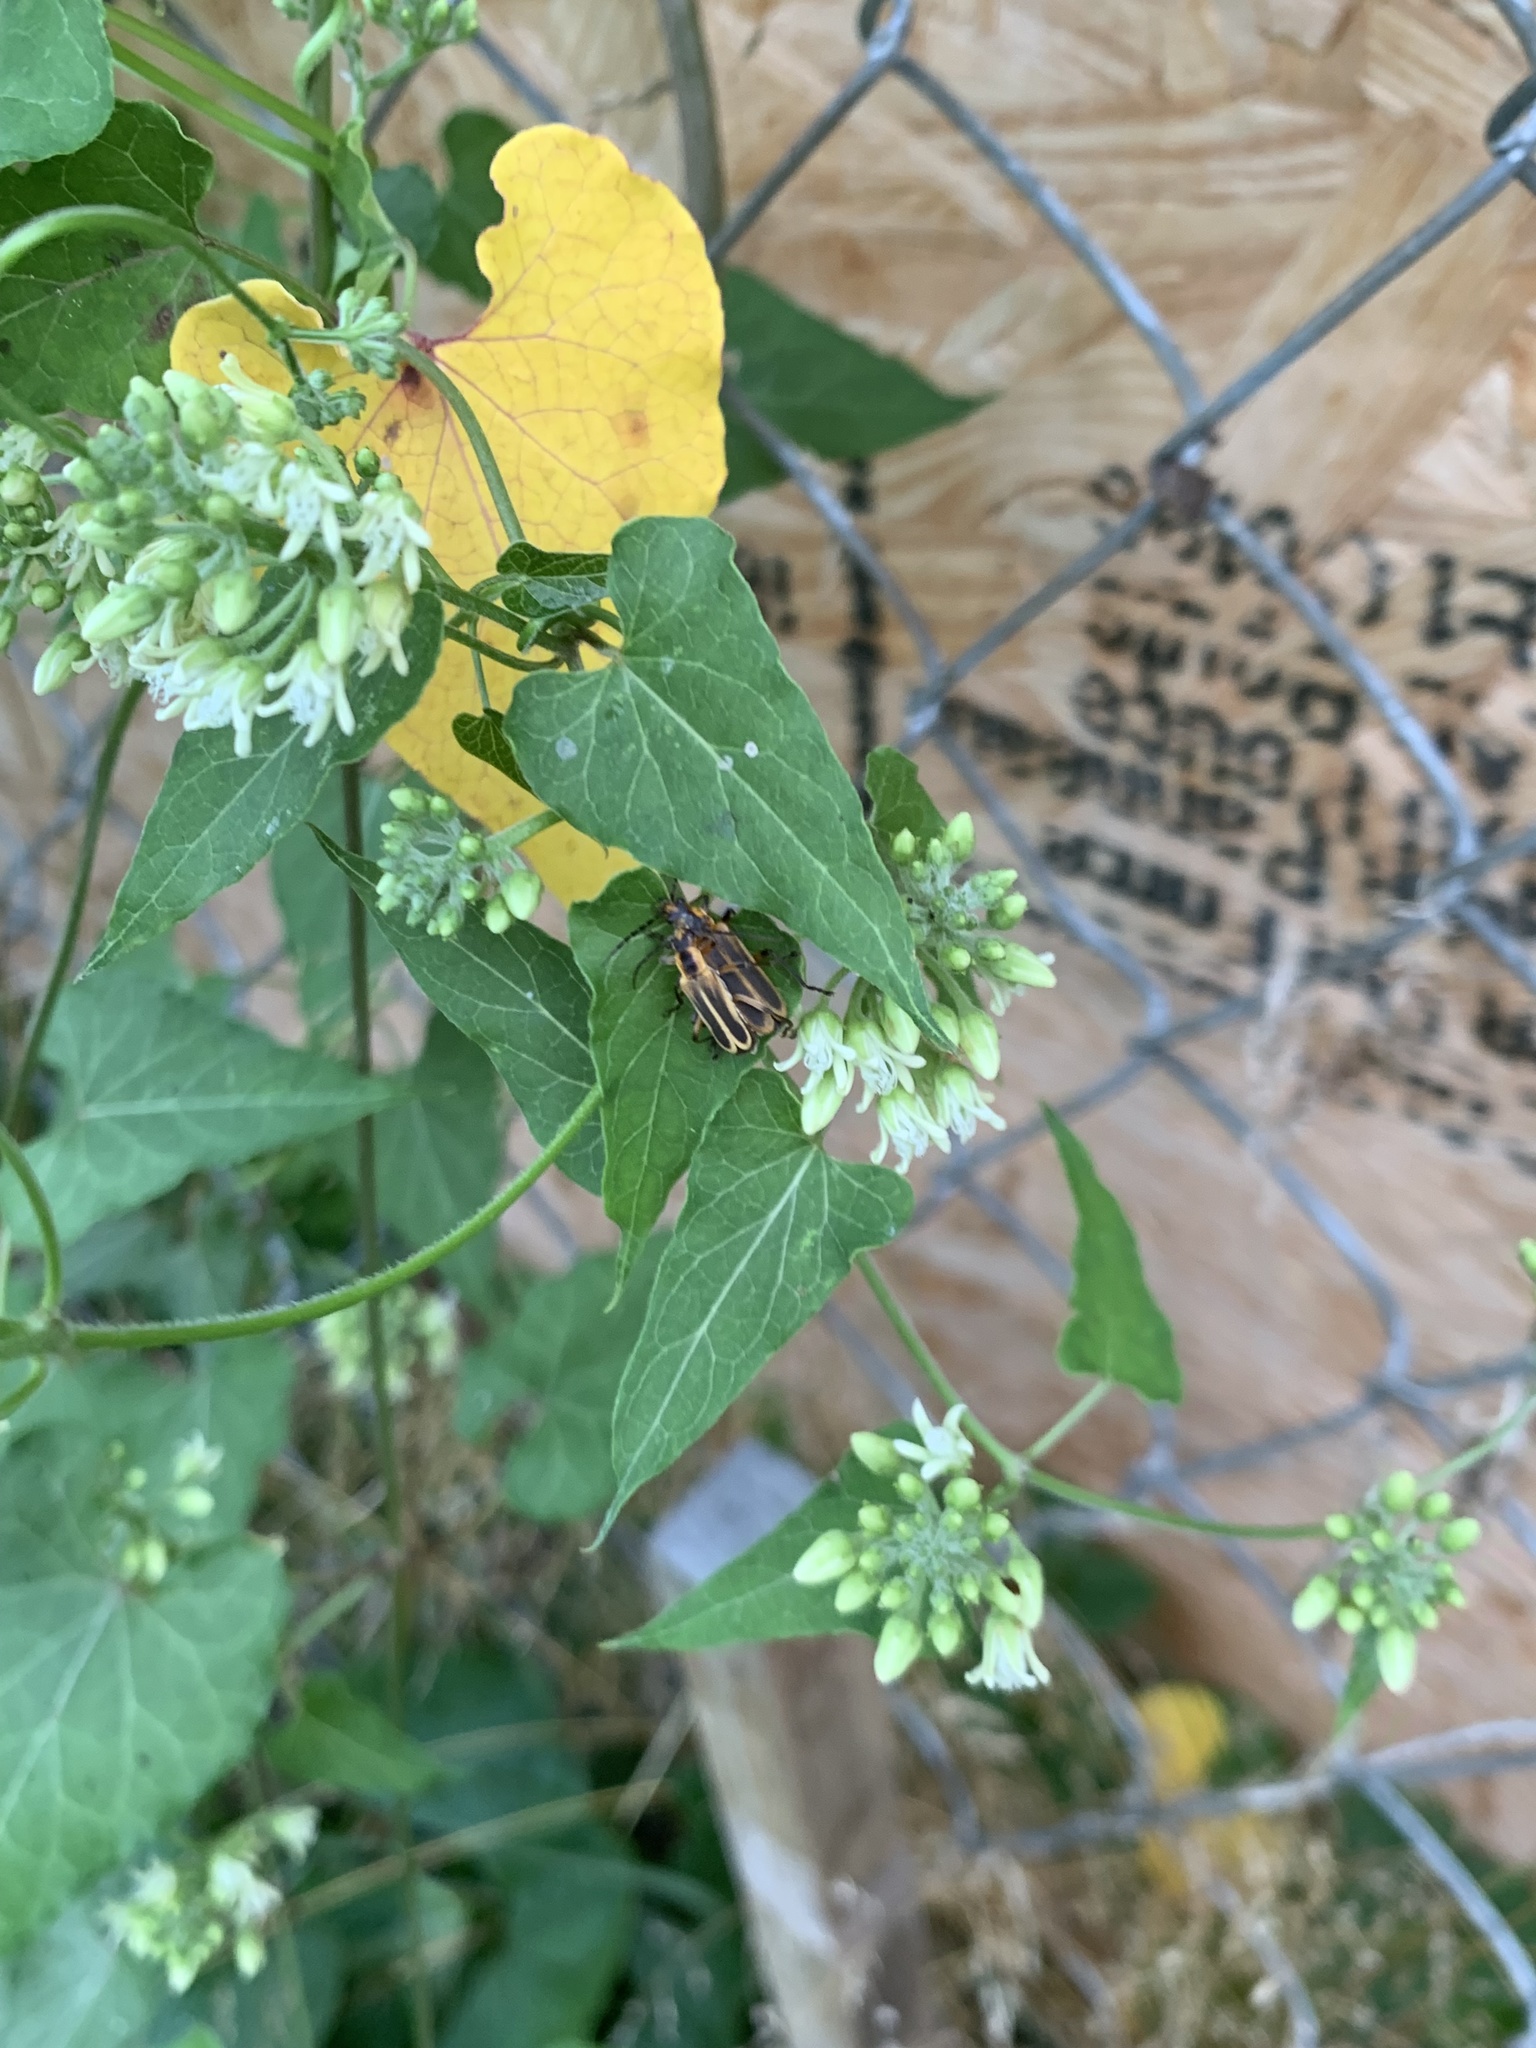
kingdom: Animalia
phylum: Arthropoda
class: Insecta
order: Coleoptera
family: Cantharidae
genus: Chauliognathus
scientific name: Chauliognathus marginatus
